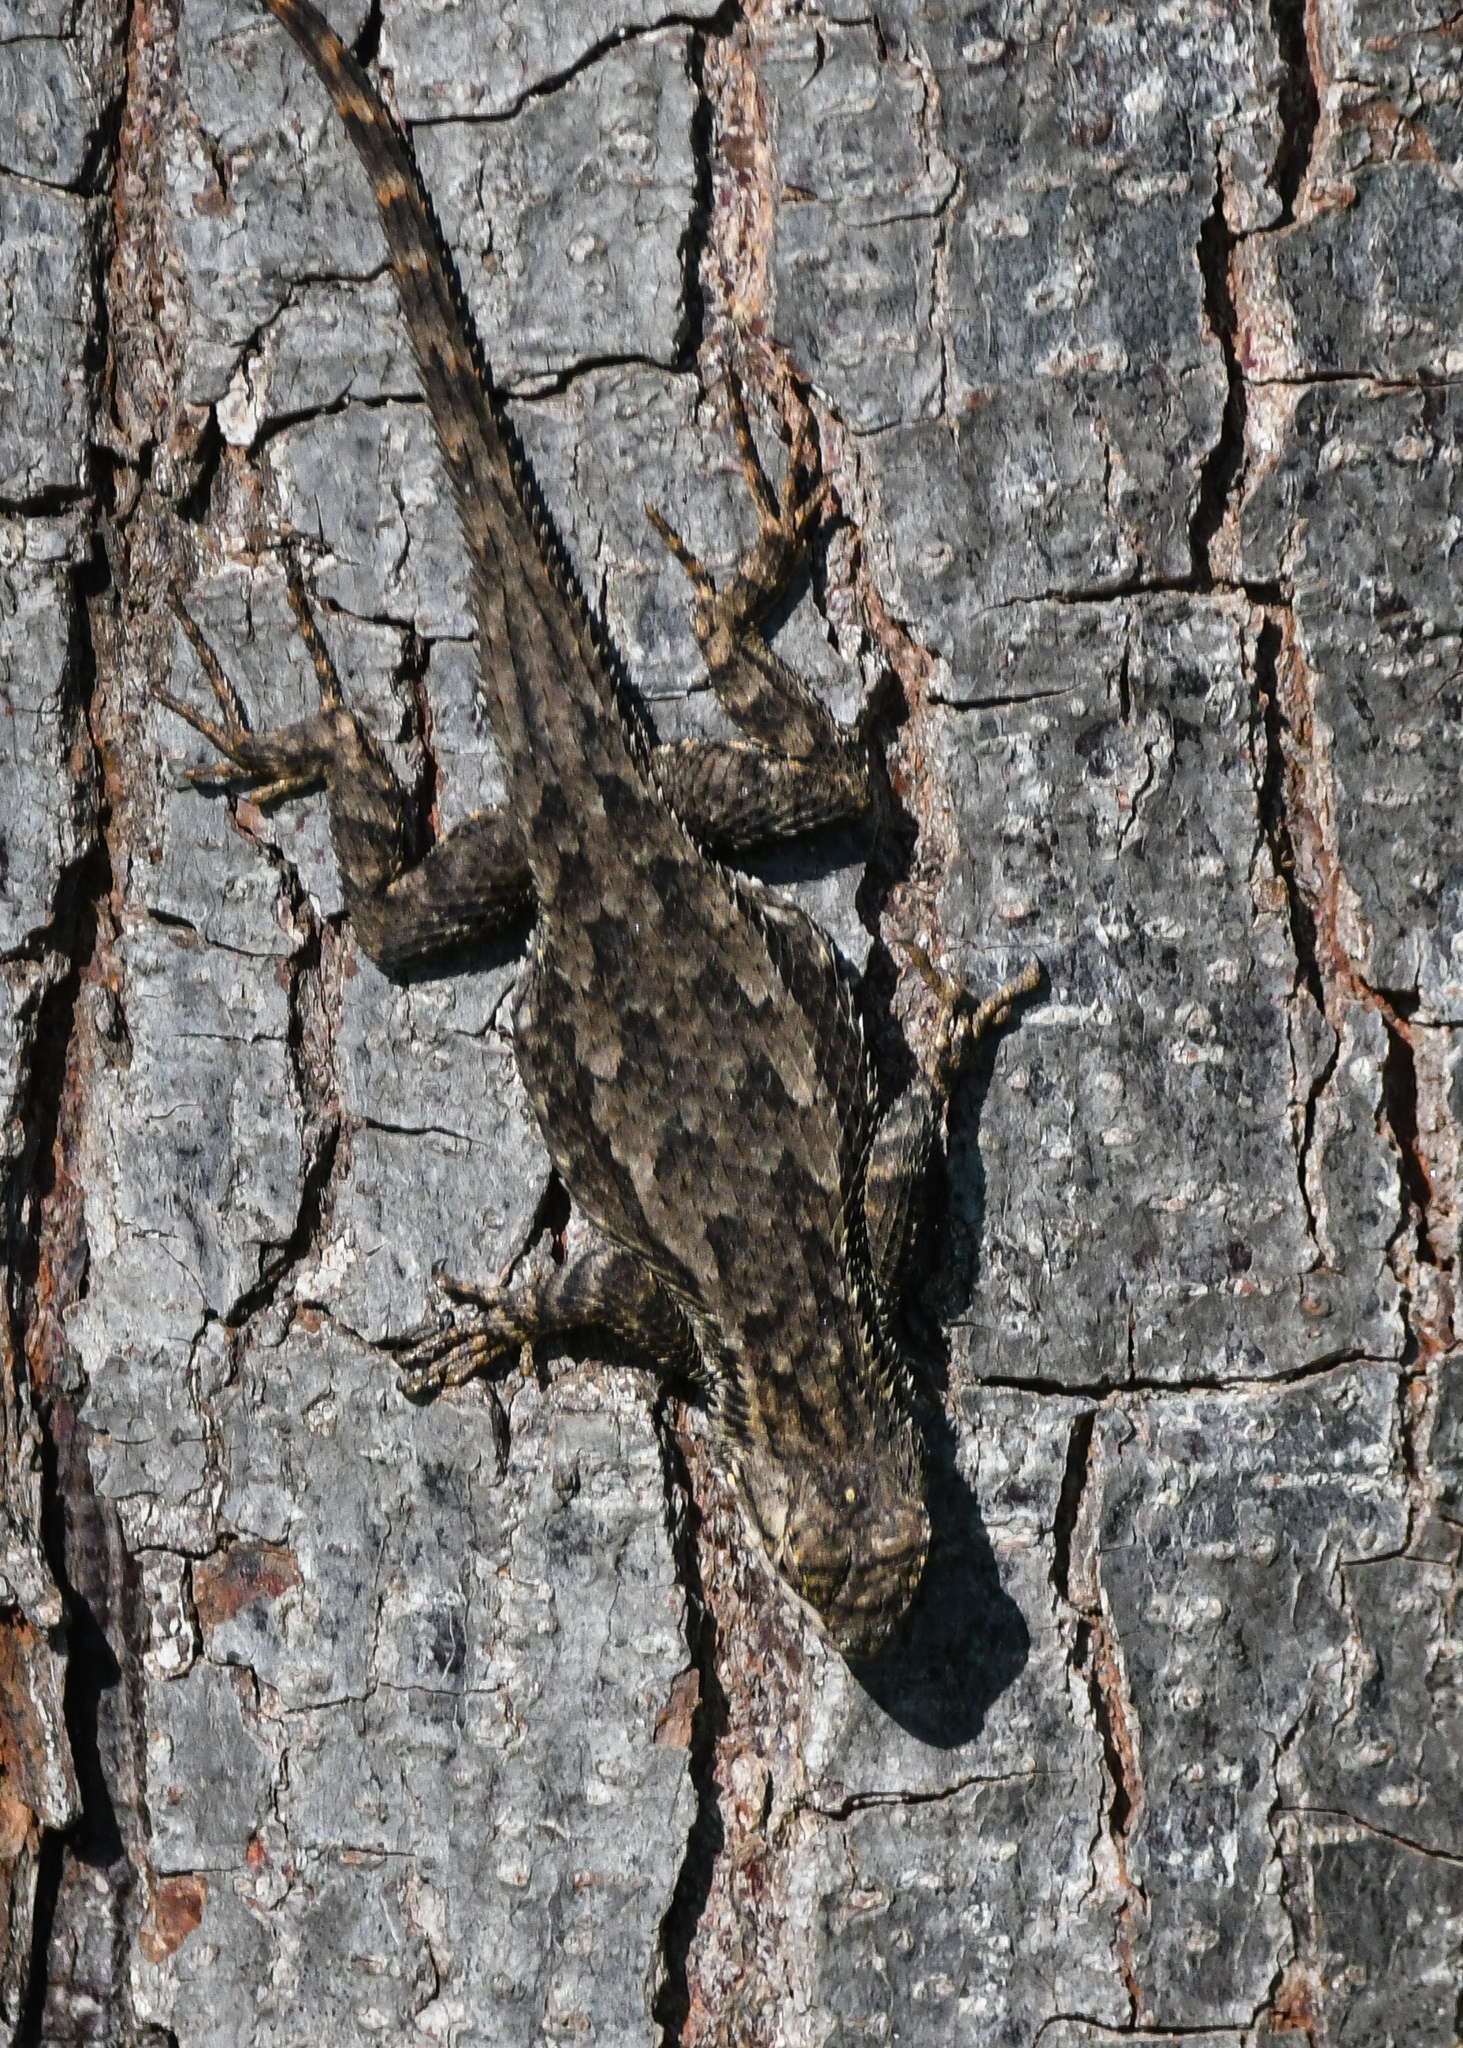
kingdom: Animalia
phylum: Chordata
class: Squamata
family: Phrynosomatidae
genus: Sceloporus
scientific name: Sceloporus occidentalis
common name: Western fence lizard
